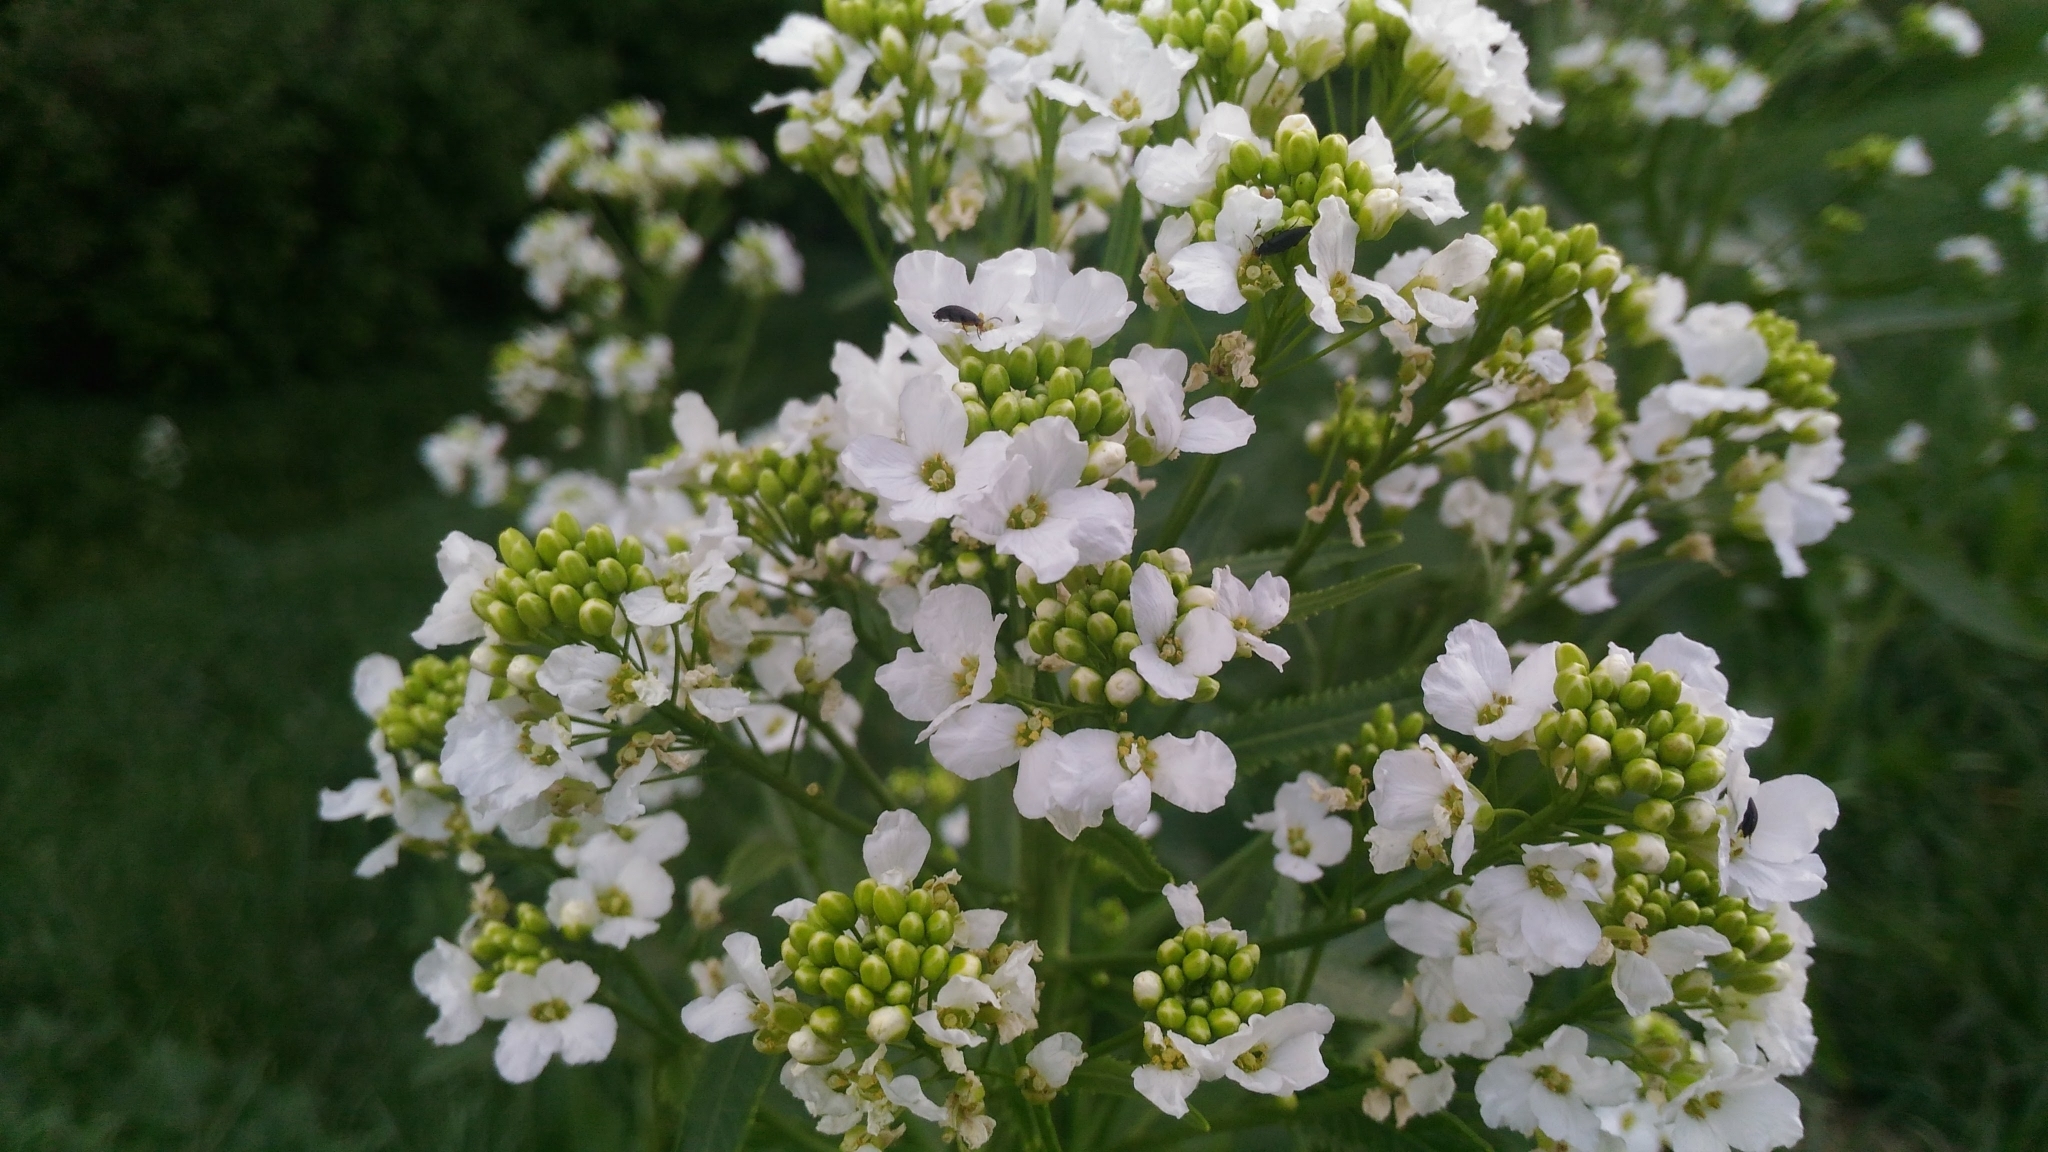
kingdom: Plantae
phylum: Tracheophyta
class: Magnoliopsida
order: Brassicales
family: Brassicaceae
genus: Armoracia
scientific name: Armoracia rusticana
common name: Horseradish
